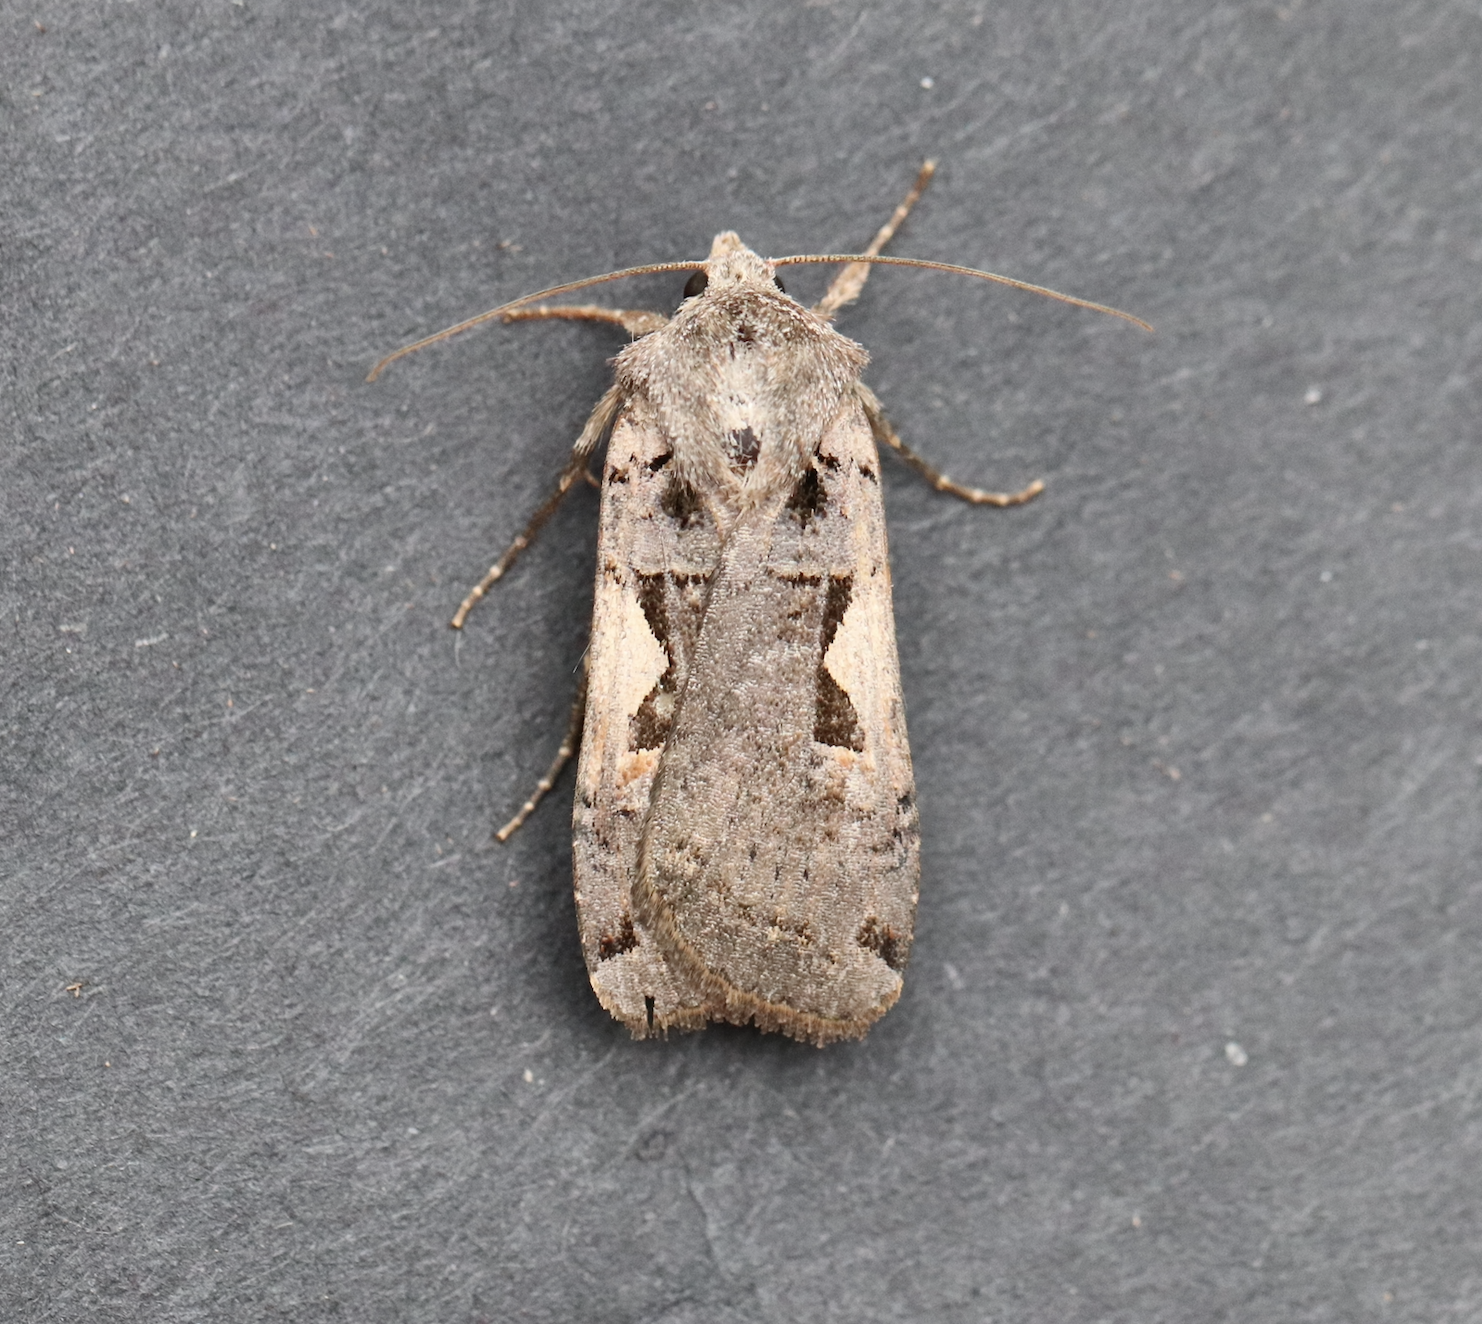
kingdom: Animalia
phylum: Arthropoda
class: Insecta
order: Lepidoptera
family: Noctuidae
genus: Xestia
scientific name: Xestia c-nigrum
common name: Setaceous hebrew character
